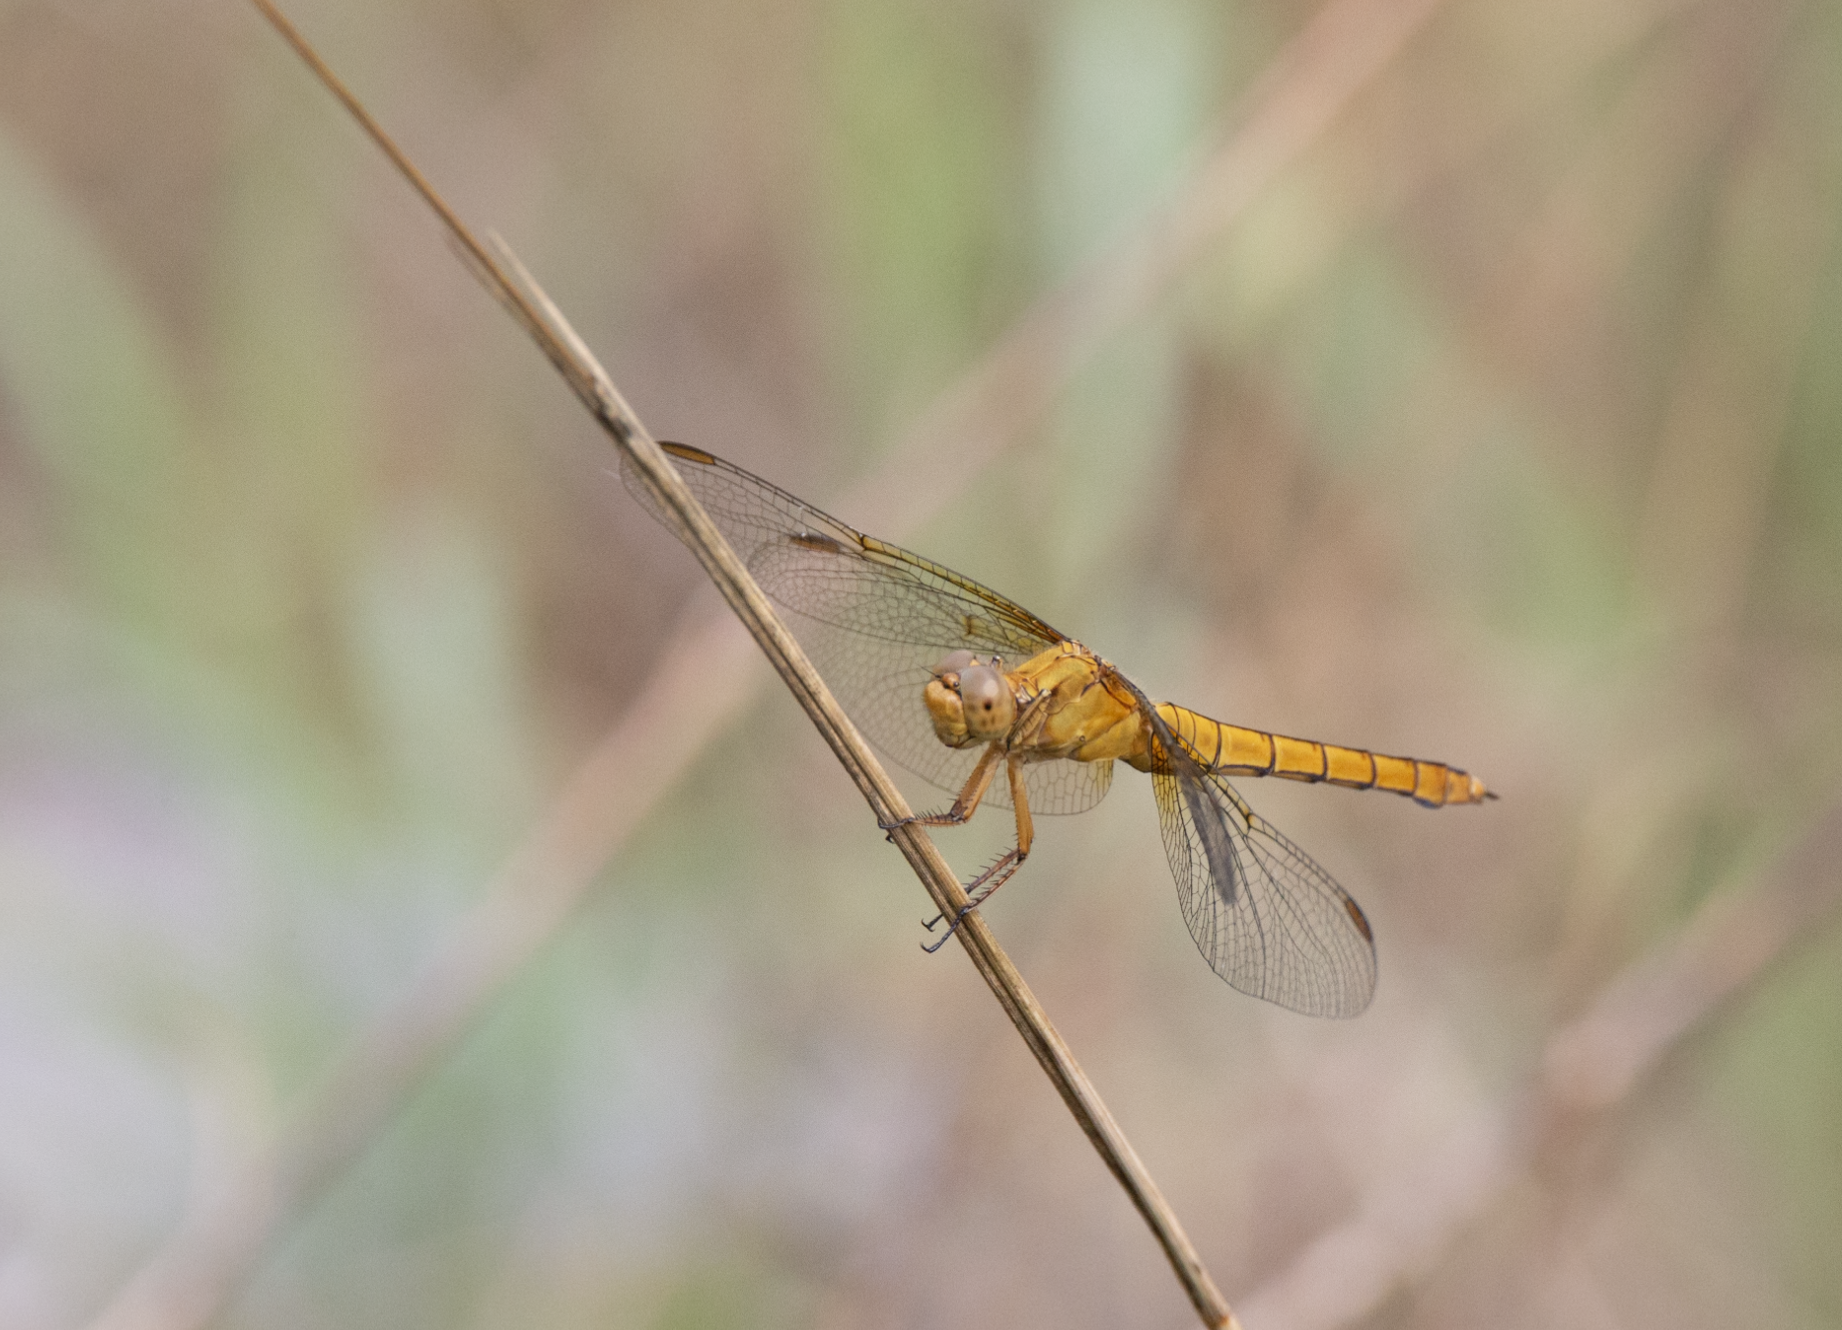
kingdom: Animalia
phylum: Arthropoda
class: Insecta
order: Odonata
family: Libellulidae
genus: Orthetrum
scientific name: Orthetrum coerulescens
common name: Keeled skimmer
